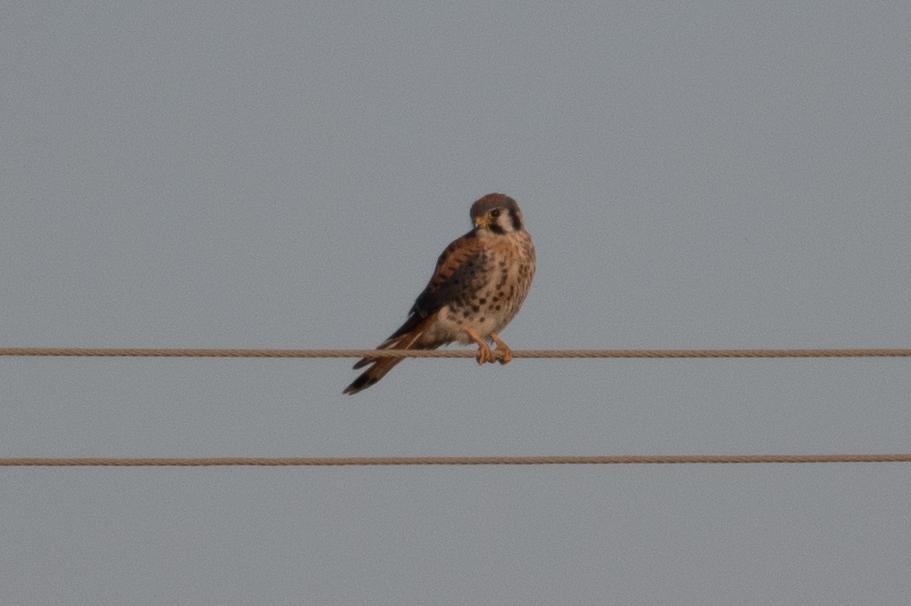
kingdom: Animalia
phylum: Chordata
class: Aves
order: Falconiformes
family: Falconidae
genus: Falco
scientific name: Falco sparverius
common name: American kestrel
